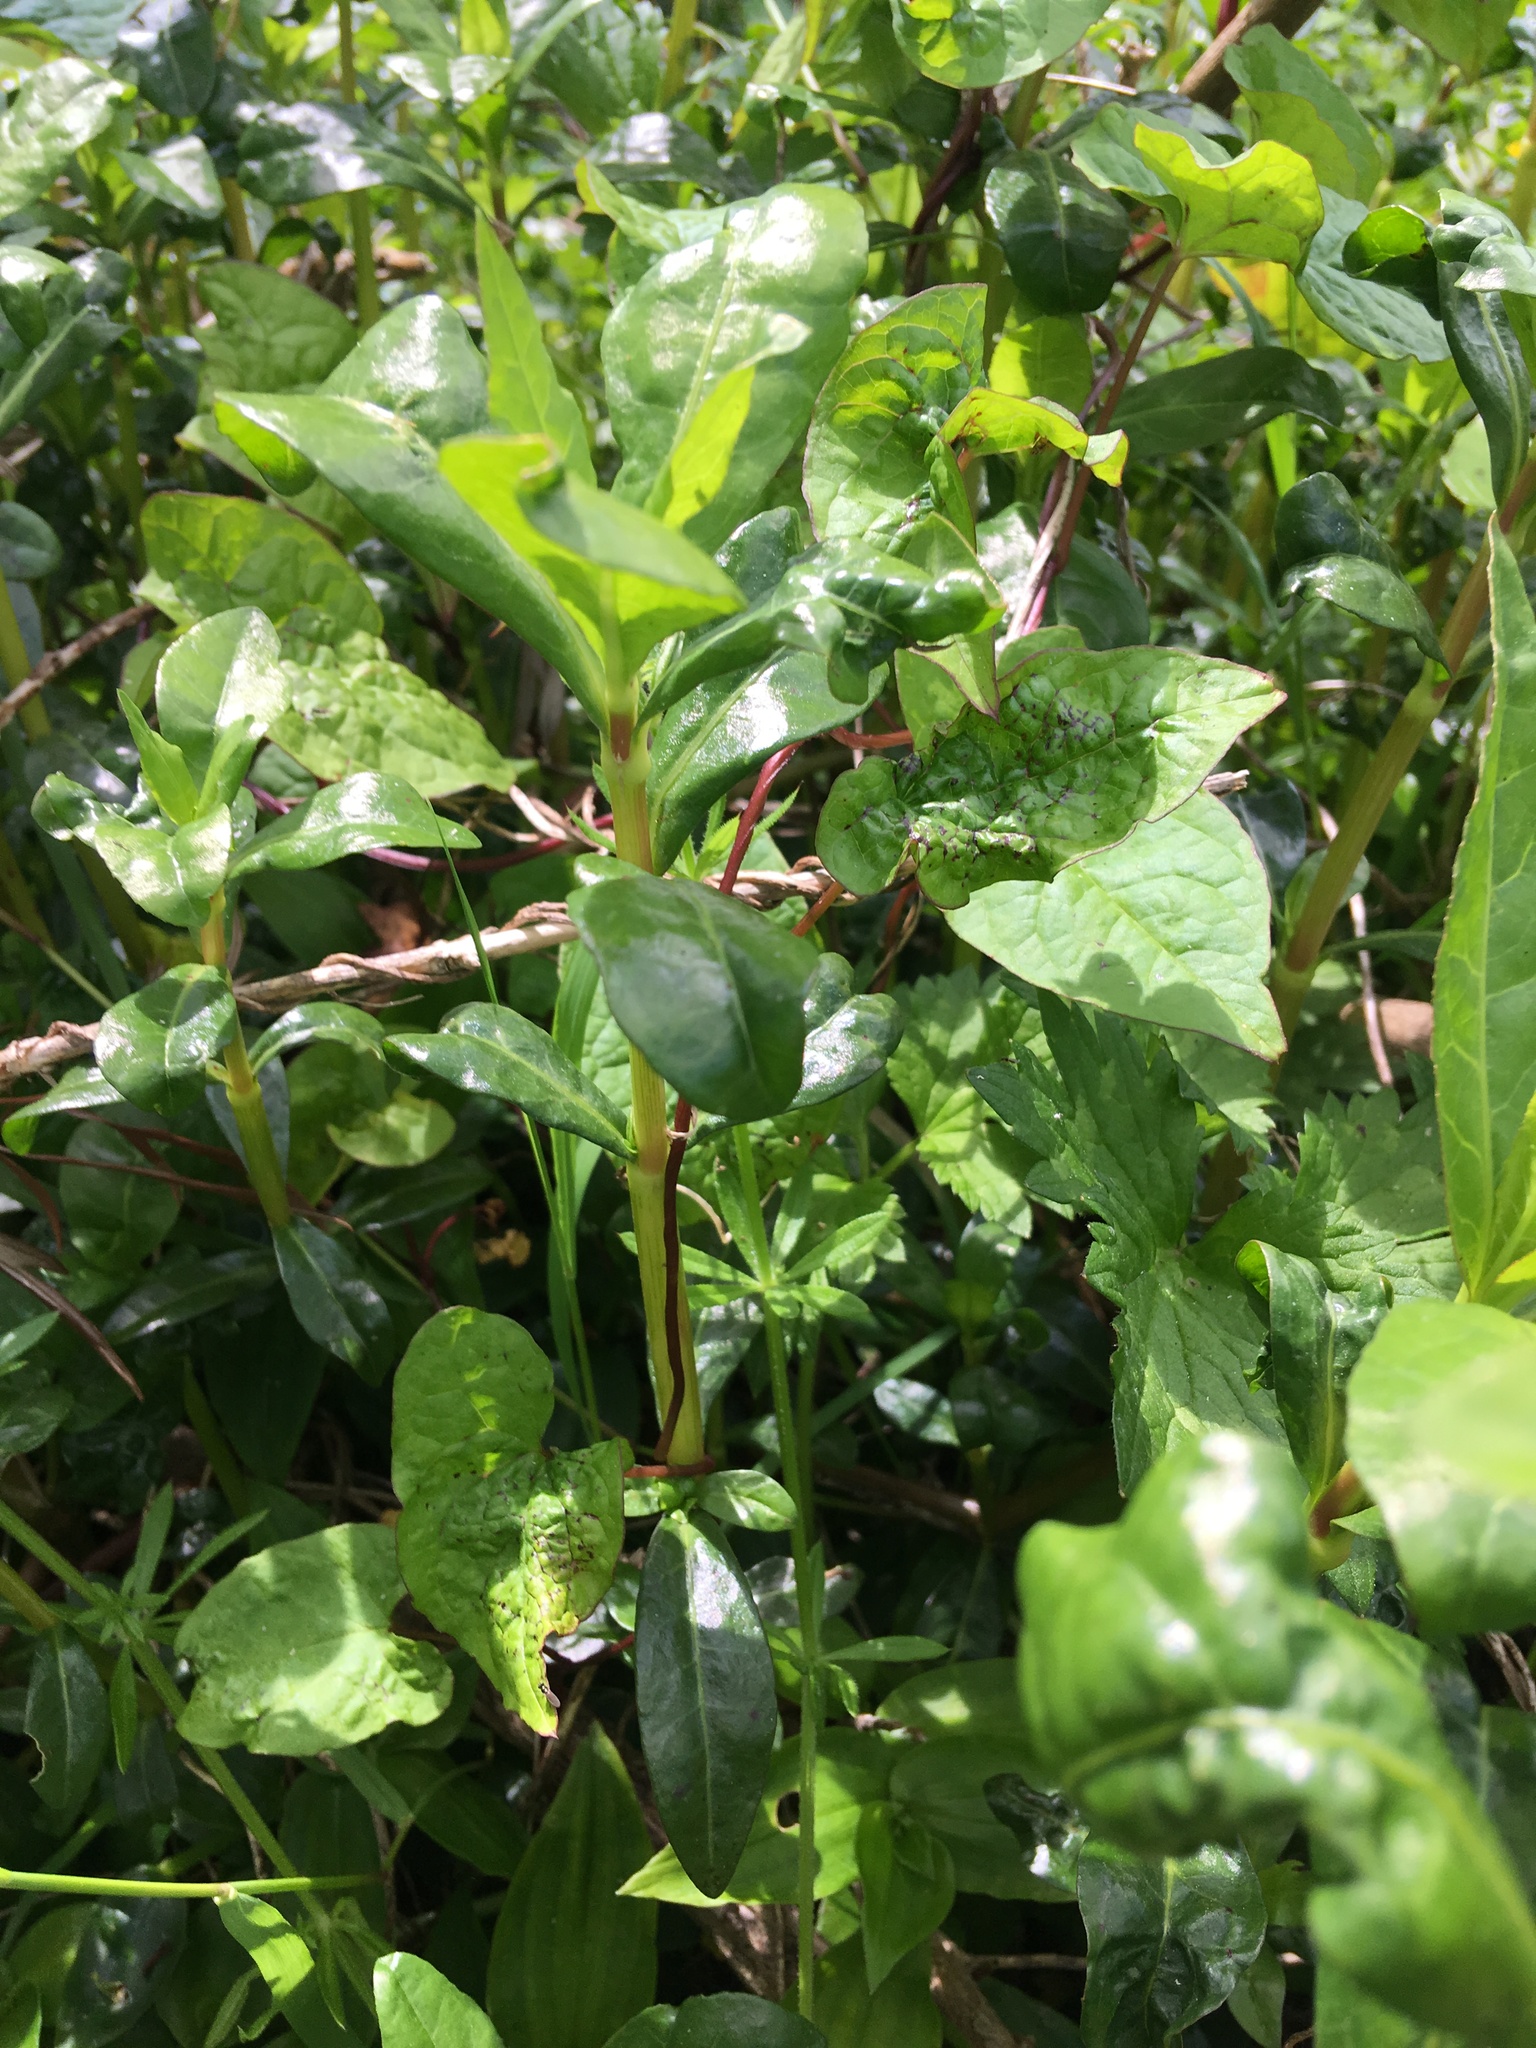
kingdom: Plantae
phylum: Tracheophyta
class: Magnoliopsida
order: Caryophyllales
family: Amaranthaceae
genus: Alternanthera
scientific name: Alternanthera philoxeroides
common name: Alligatorweed
